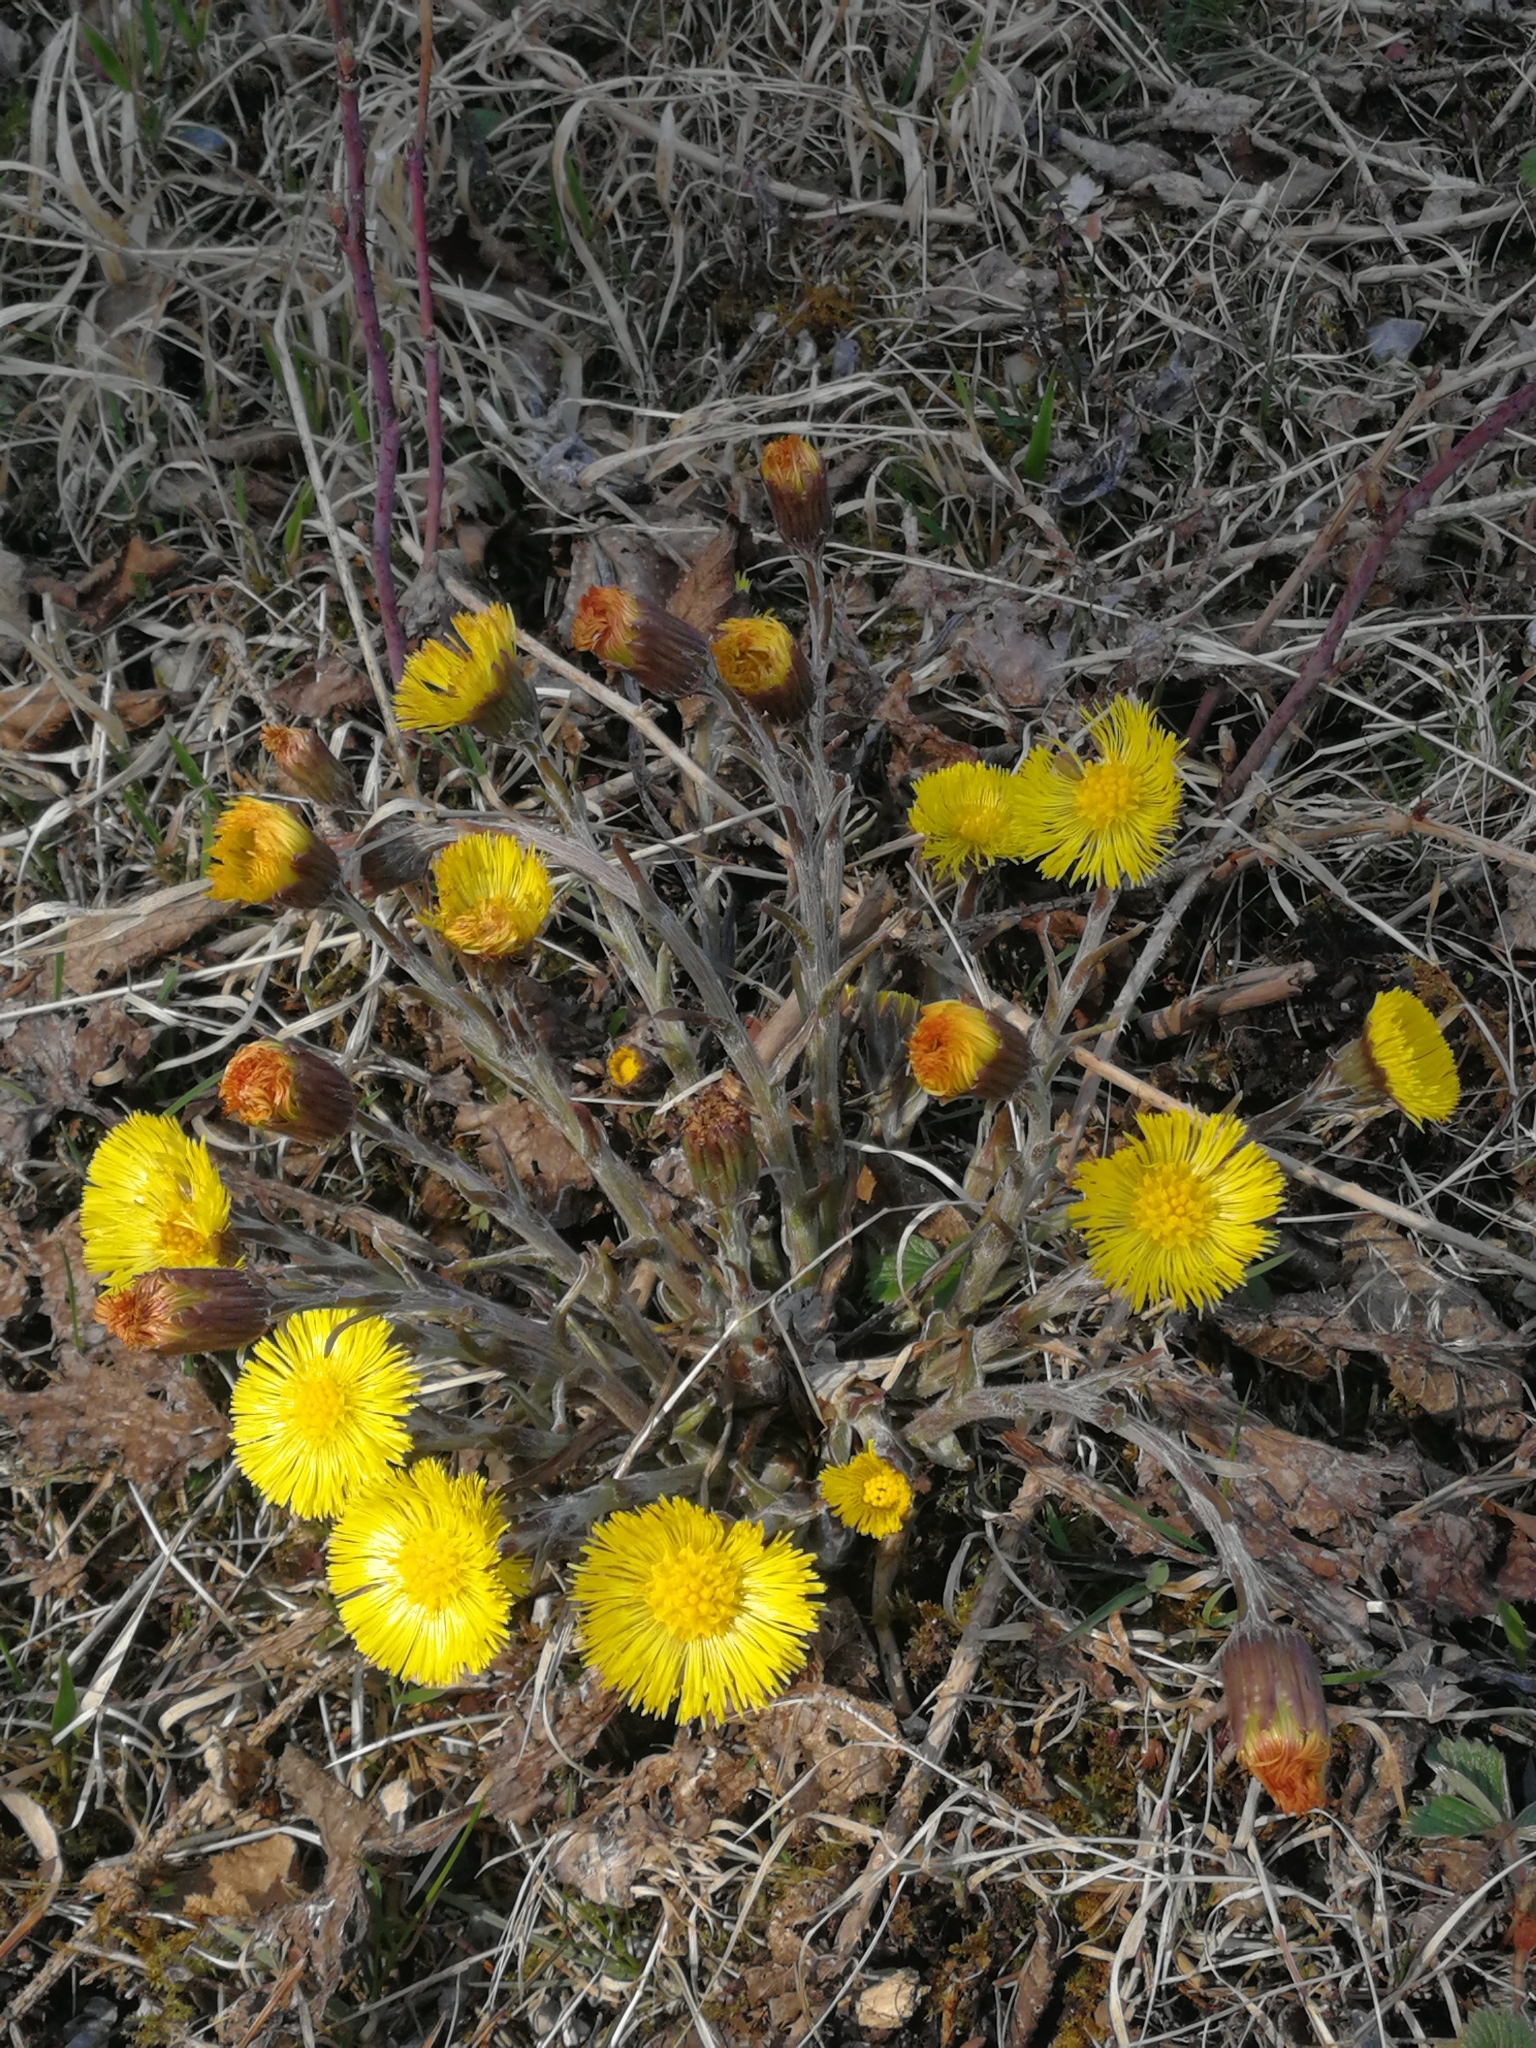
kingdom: Plantae
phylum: Tracheophyta
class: Magnoliopsida
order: Asterales
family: Asteraceae
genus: Tussilago
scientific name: Tussilago farfara
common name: Coltsfoot
